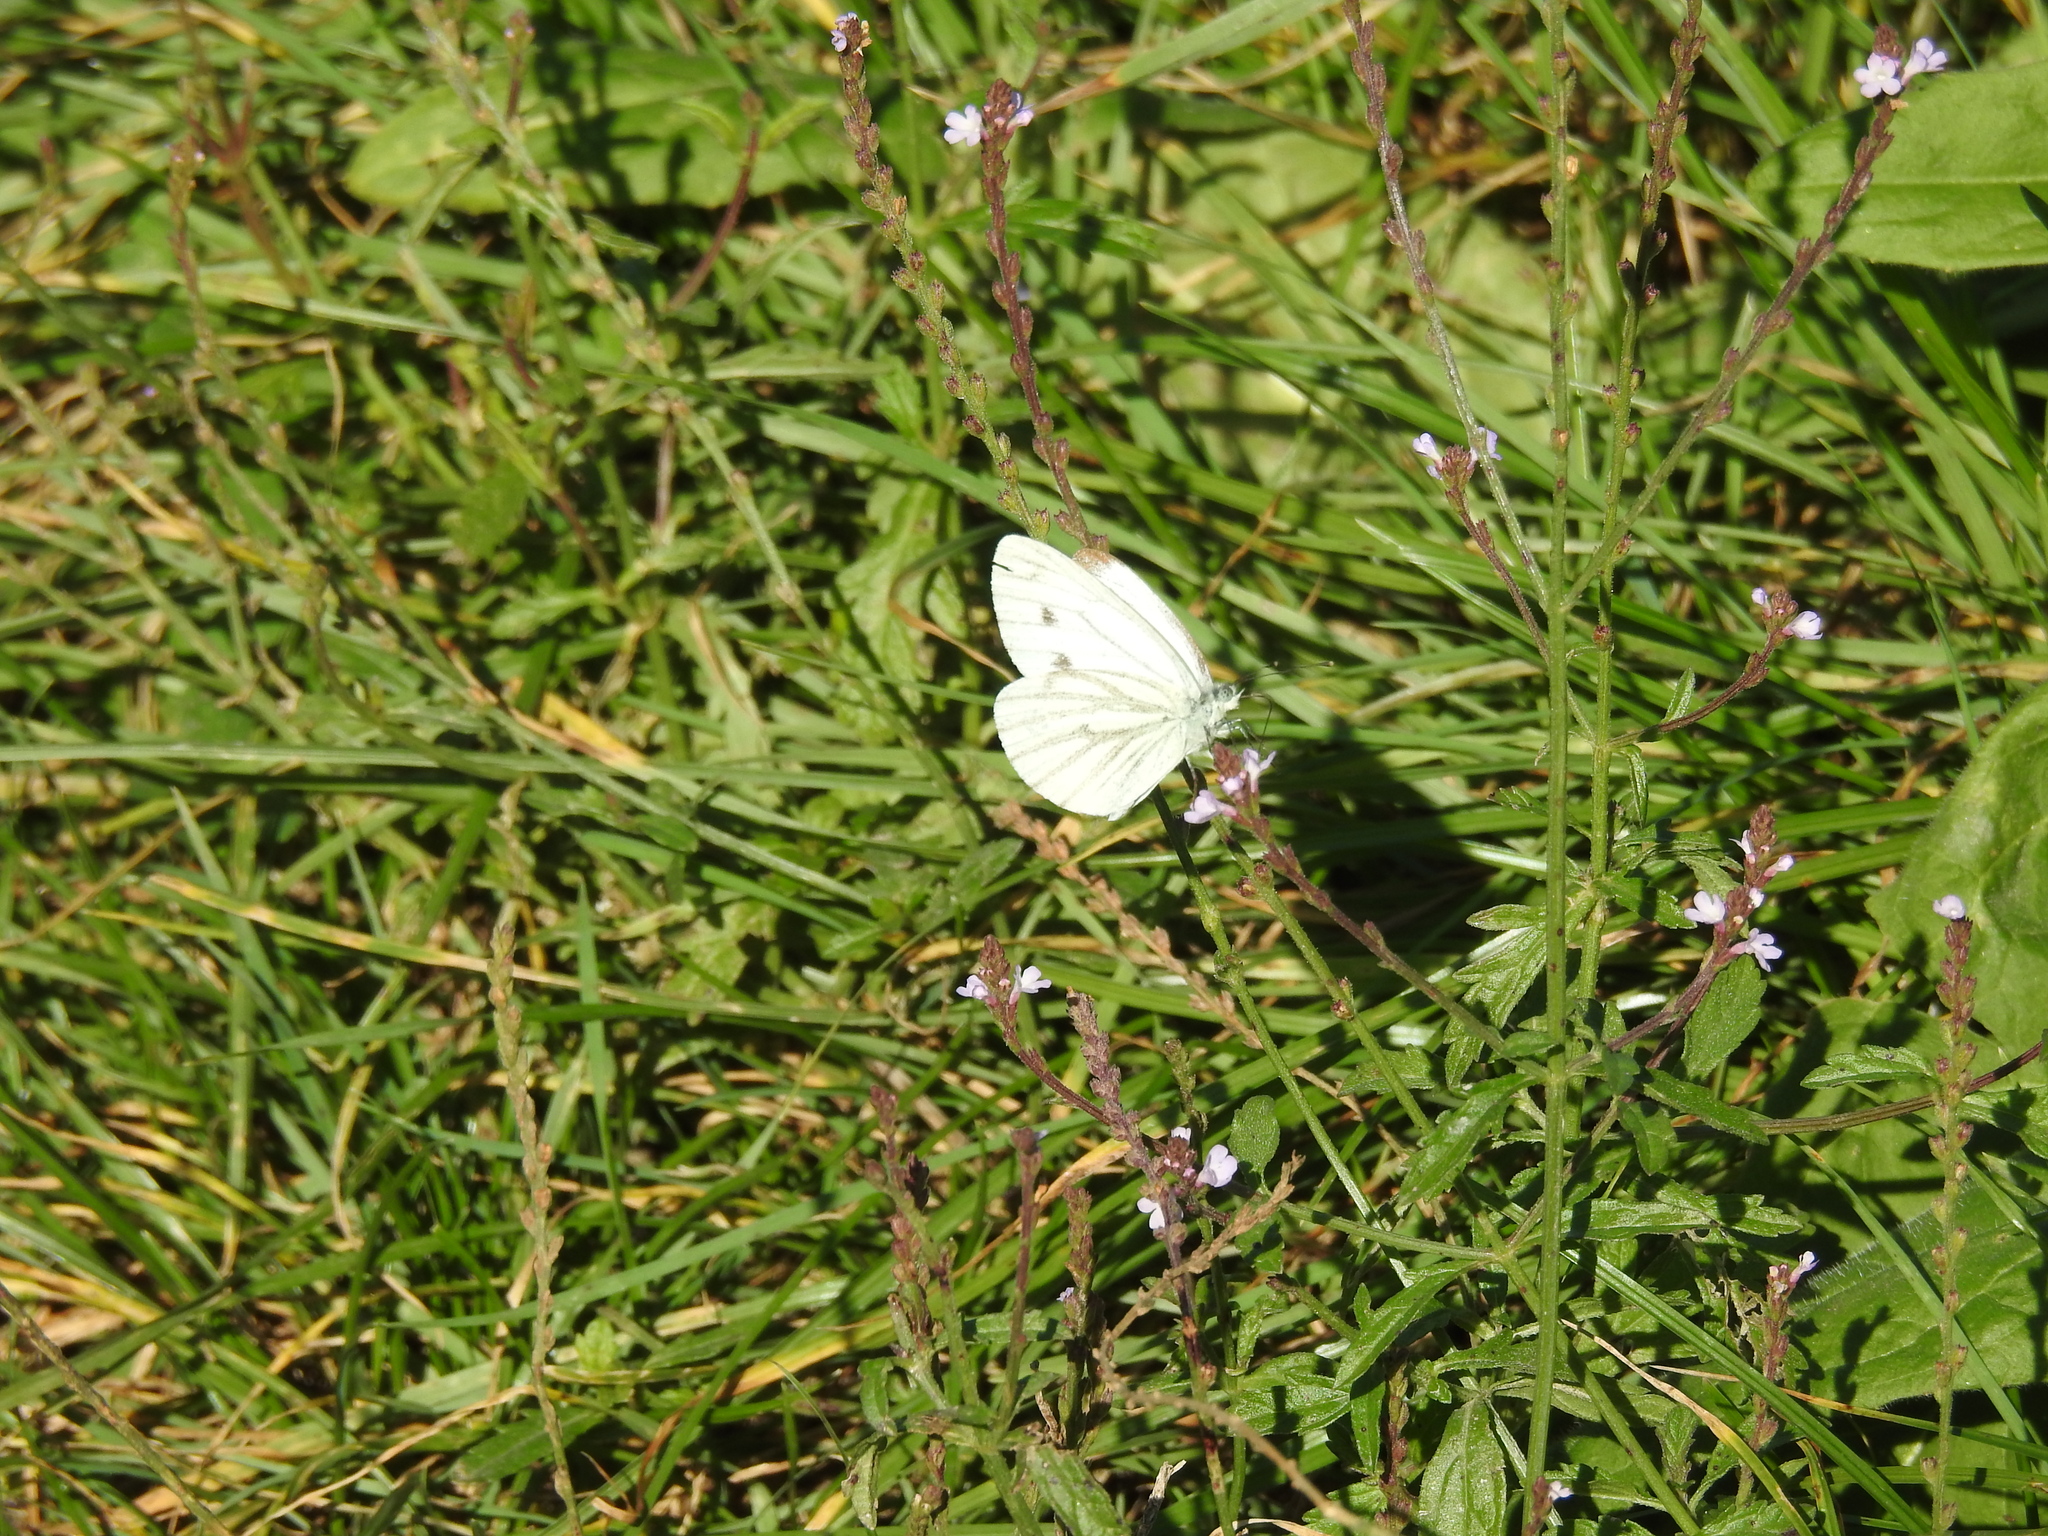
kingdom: Animalia
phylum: Arthropoda
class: Insecta
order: Lepidoptera
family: Pieridae
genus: Pieris
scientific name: Pieris napi
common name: Green-veined white
